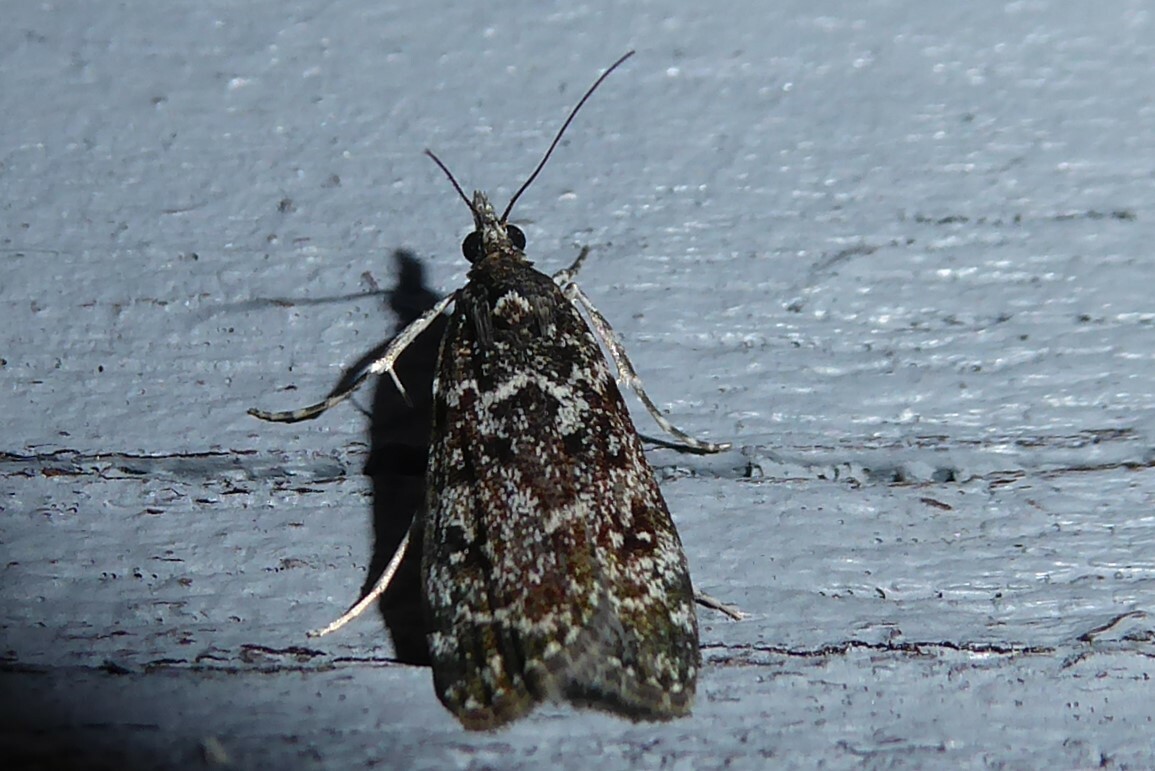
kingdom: Animalia
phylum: Arthropoda
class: Insecta
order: Lepidoptera
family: Crambidae
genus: Eudonia
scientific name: Eudonia philerga
